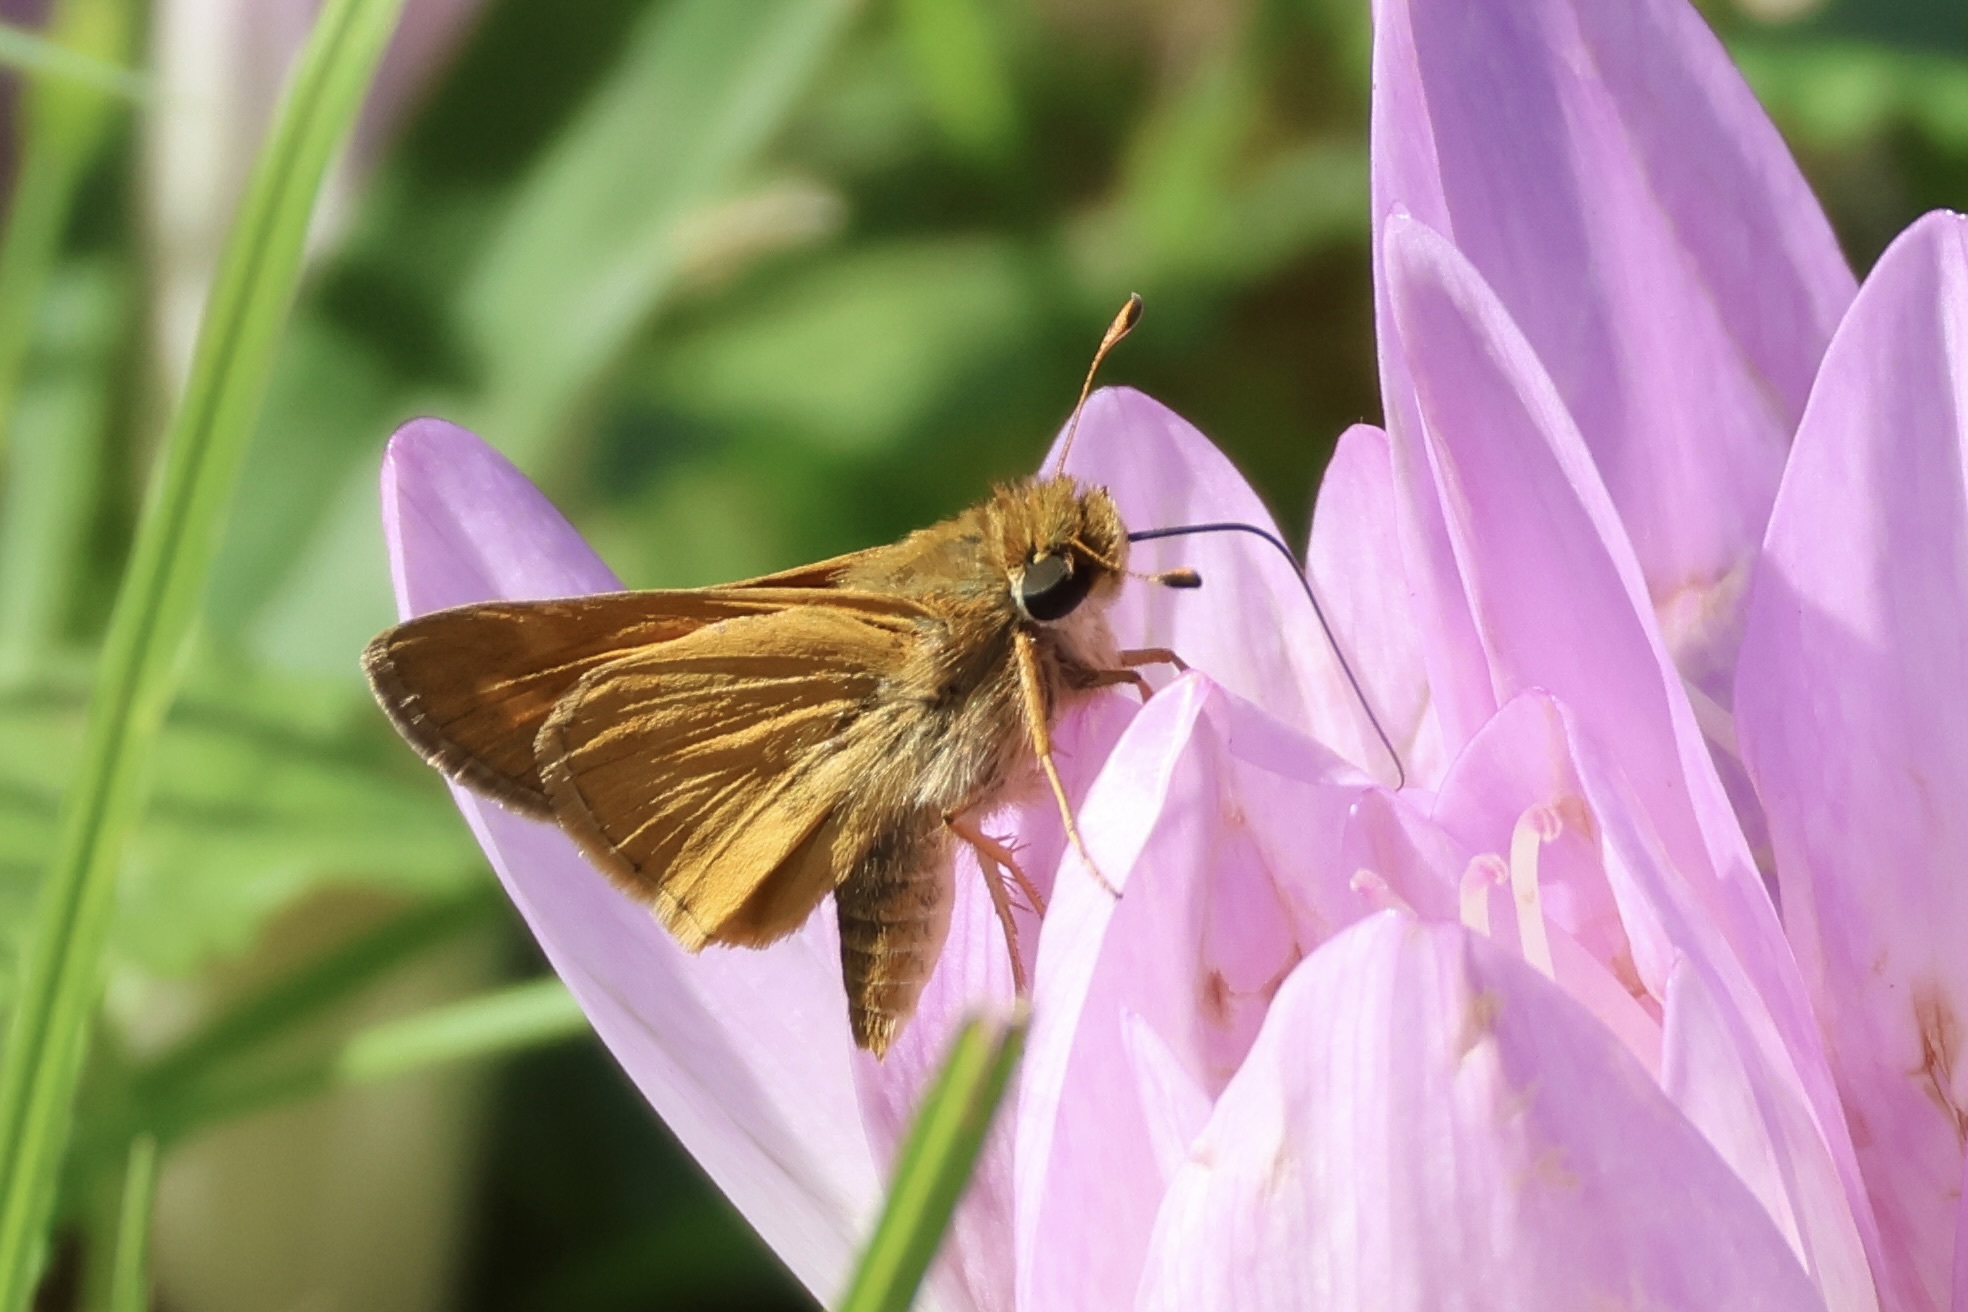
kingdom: Animalia
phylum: Arthropoda
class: Insecta
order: Lepidoptera
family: Hesperiidae
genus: Atalopedes
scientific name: Atalopedes
